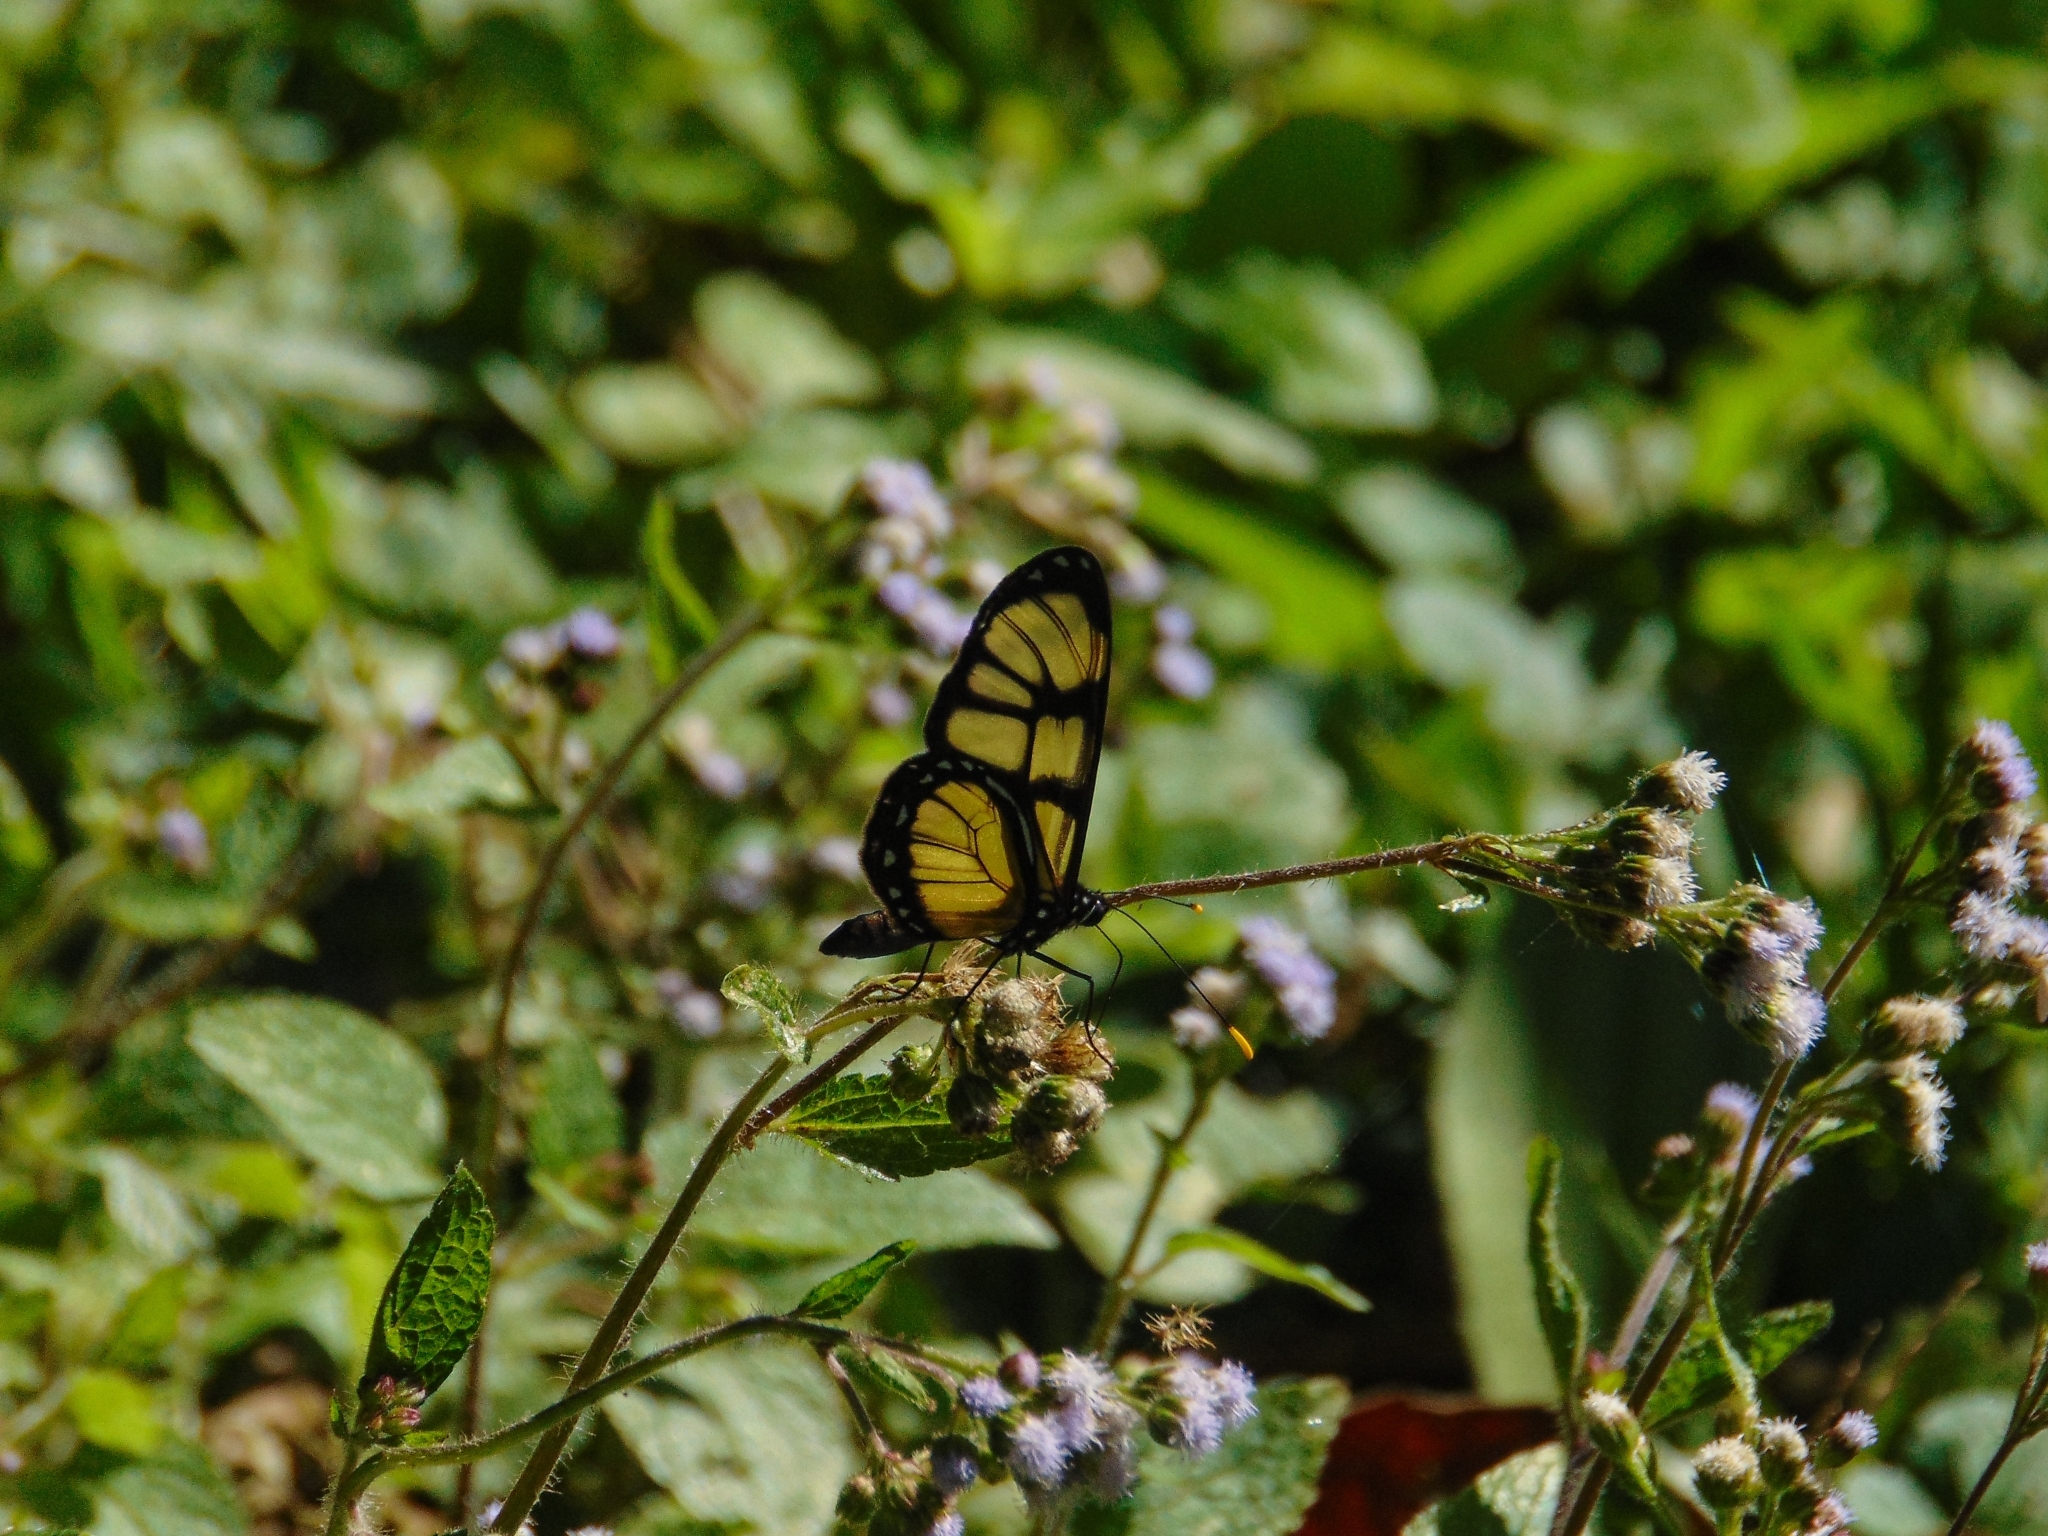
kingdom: Animalia
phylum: Arthropoda
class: Insecta
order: Lepidoptera
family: Nymphalidae
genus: Dircenna
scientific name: Dircenna dero
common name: Dero clearwing
